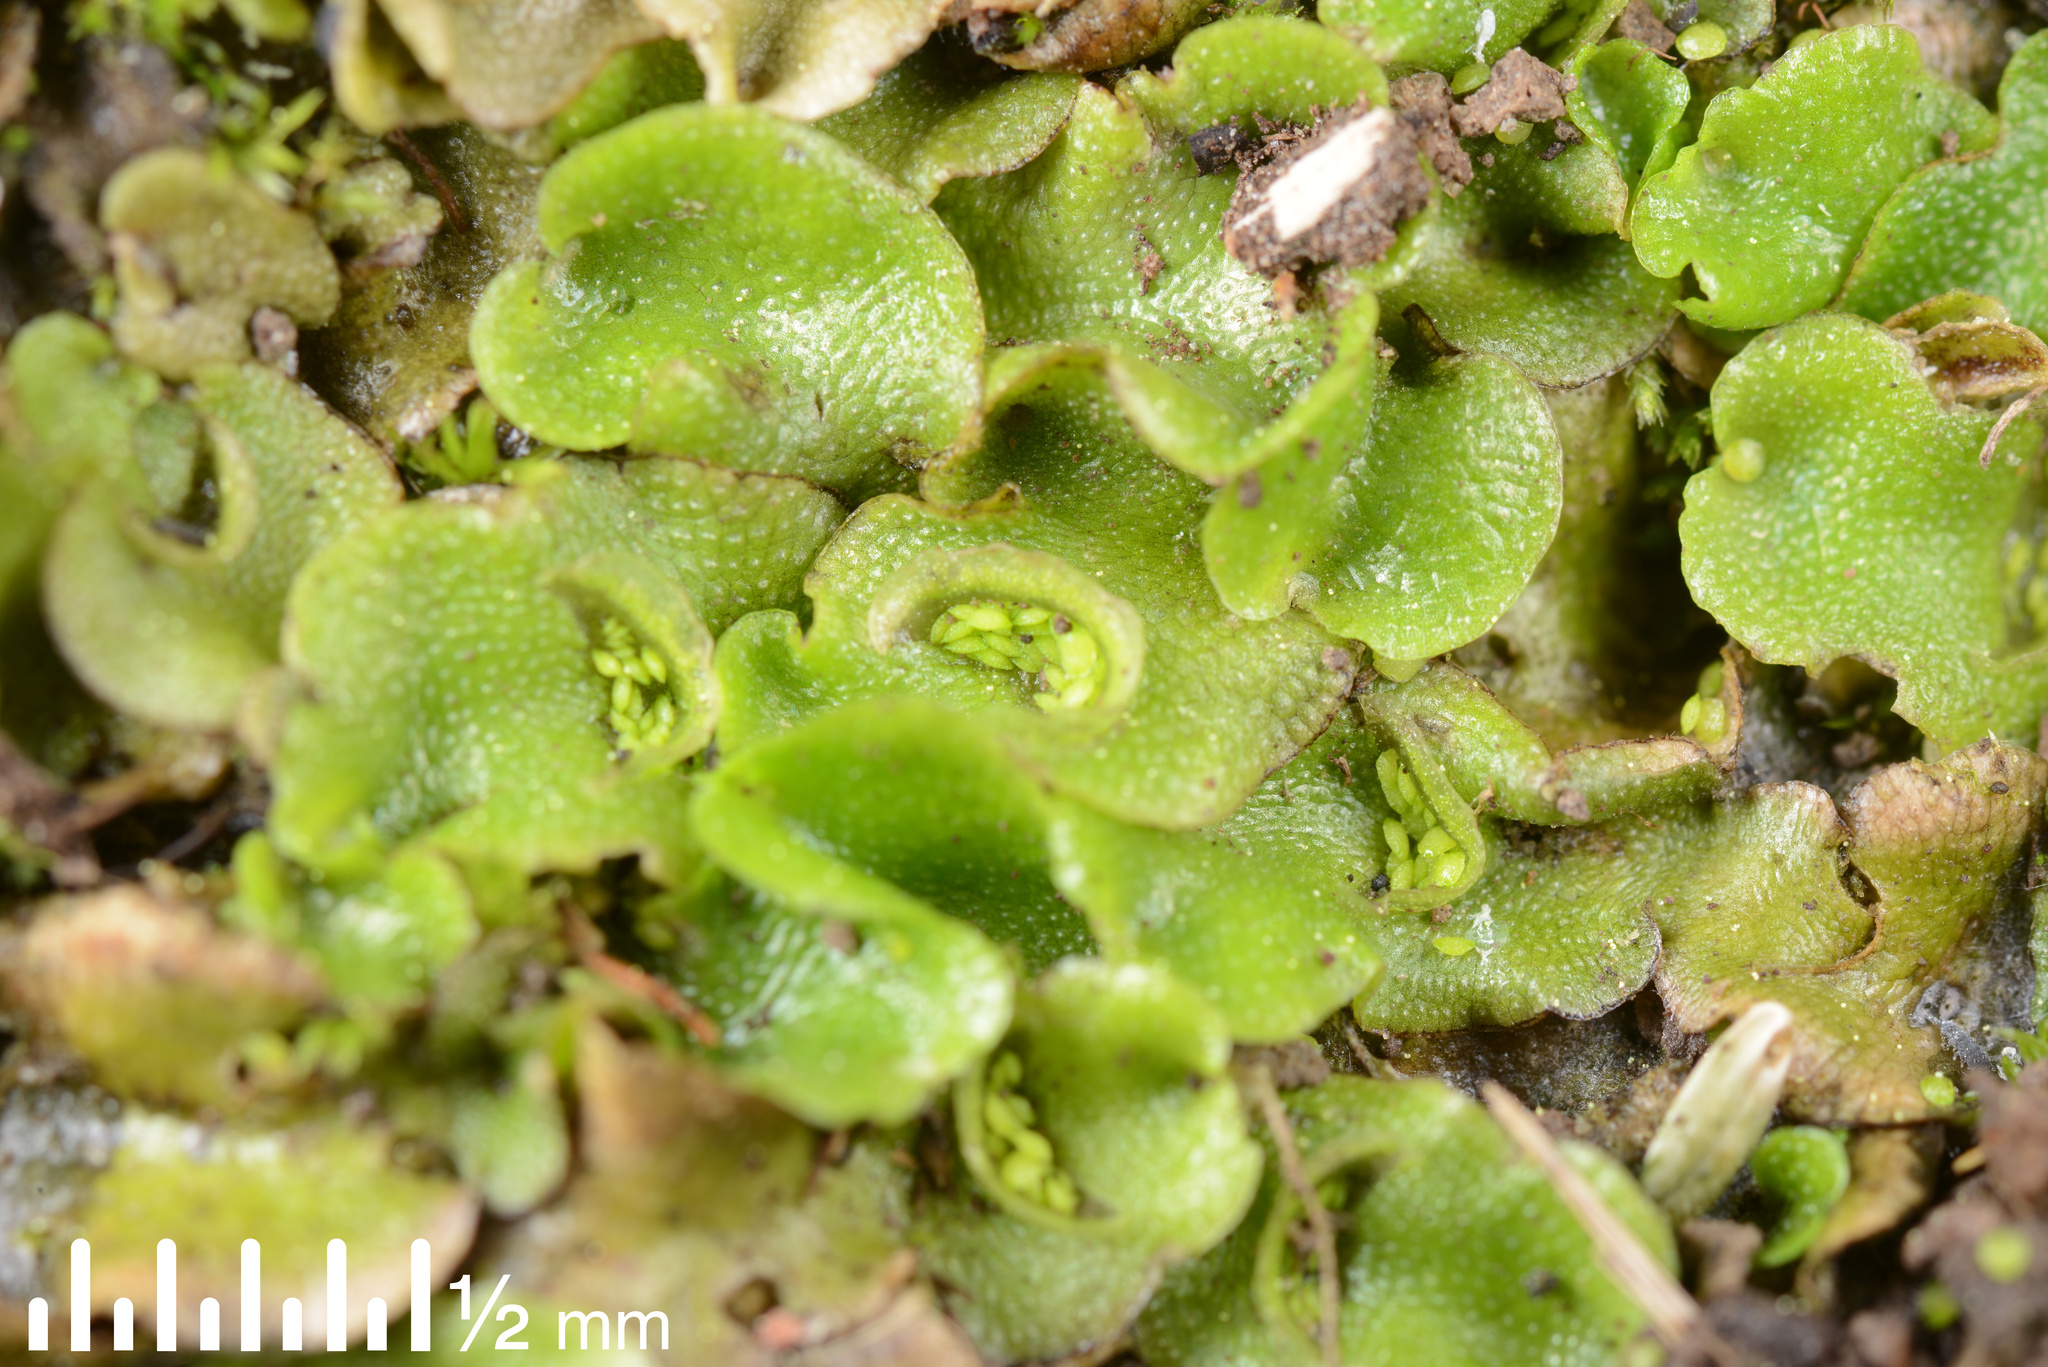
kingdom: Plantae
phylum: Marchantiophyta
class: Marchantiopsida
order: Lunulariales
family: Lunulariaceae
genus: Lunularia
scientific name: Lunularia cruciata
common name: Crescent-cup liverwort
